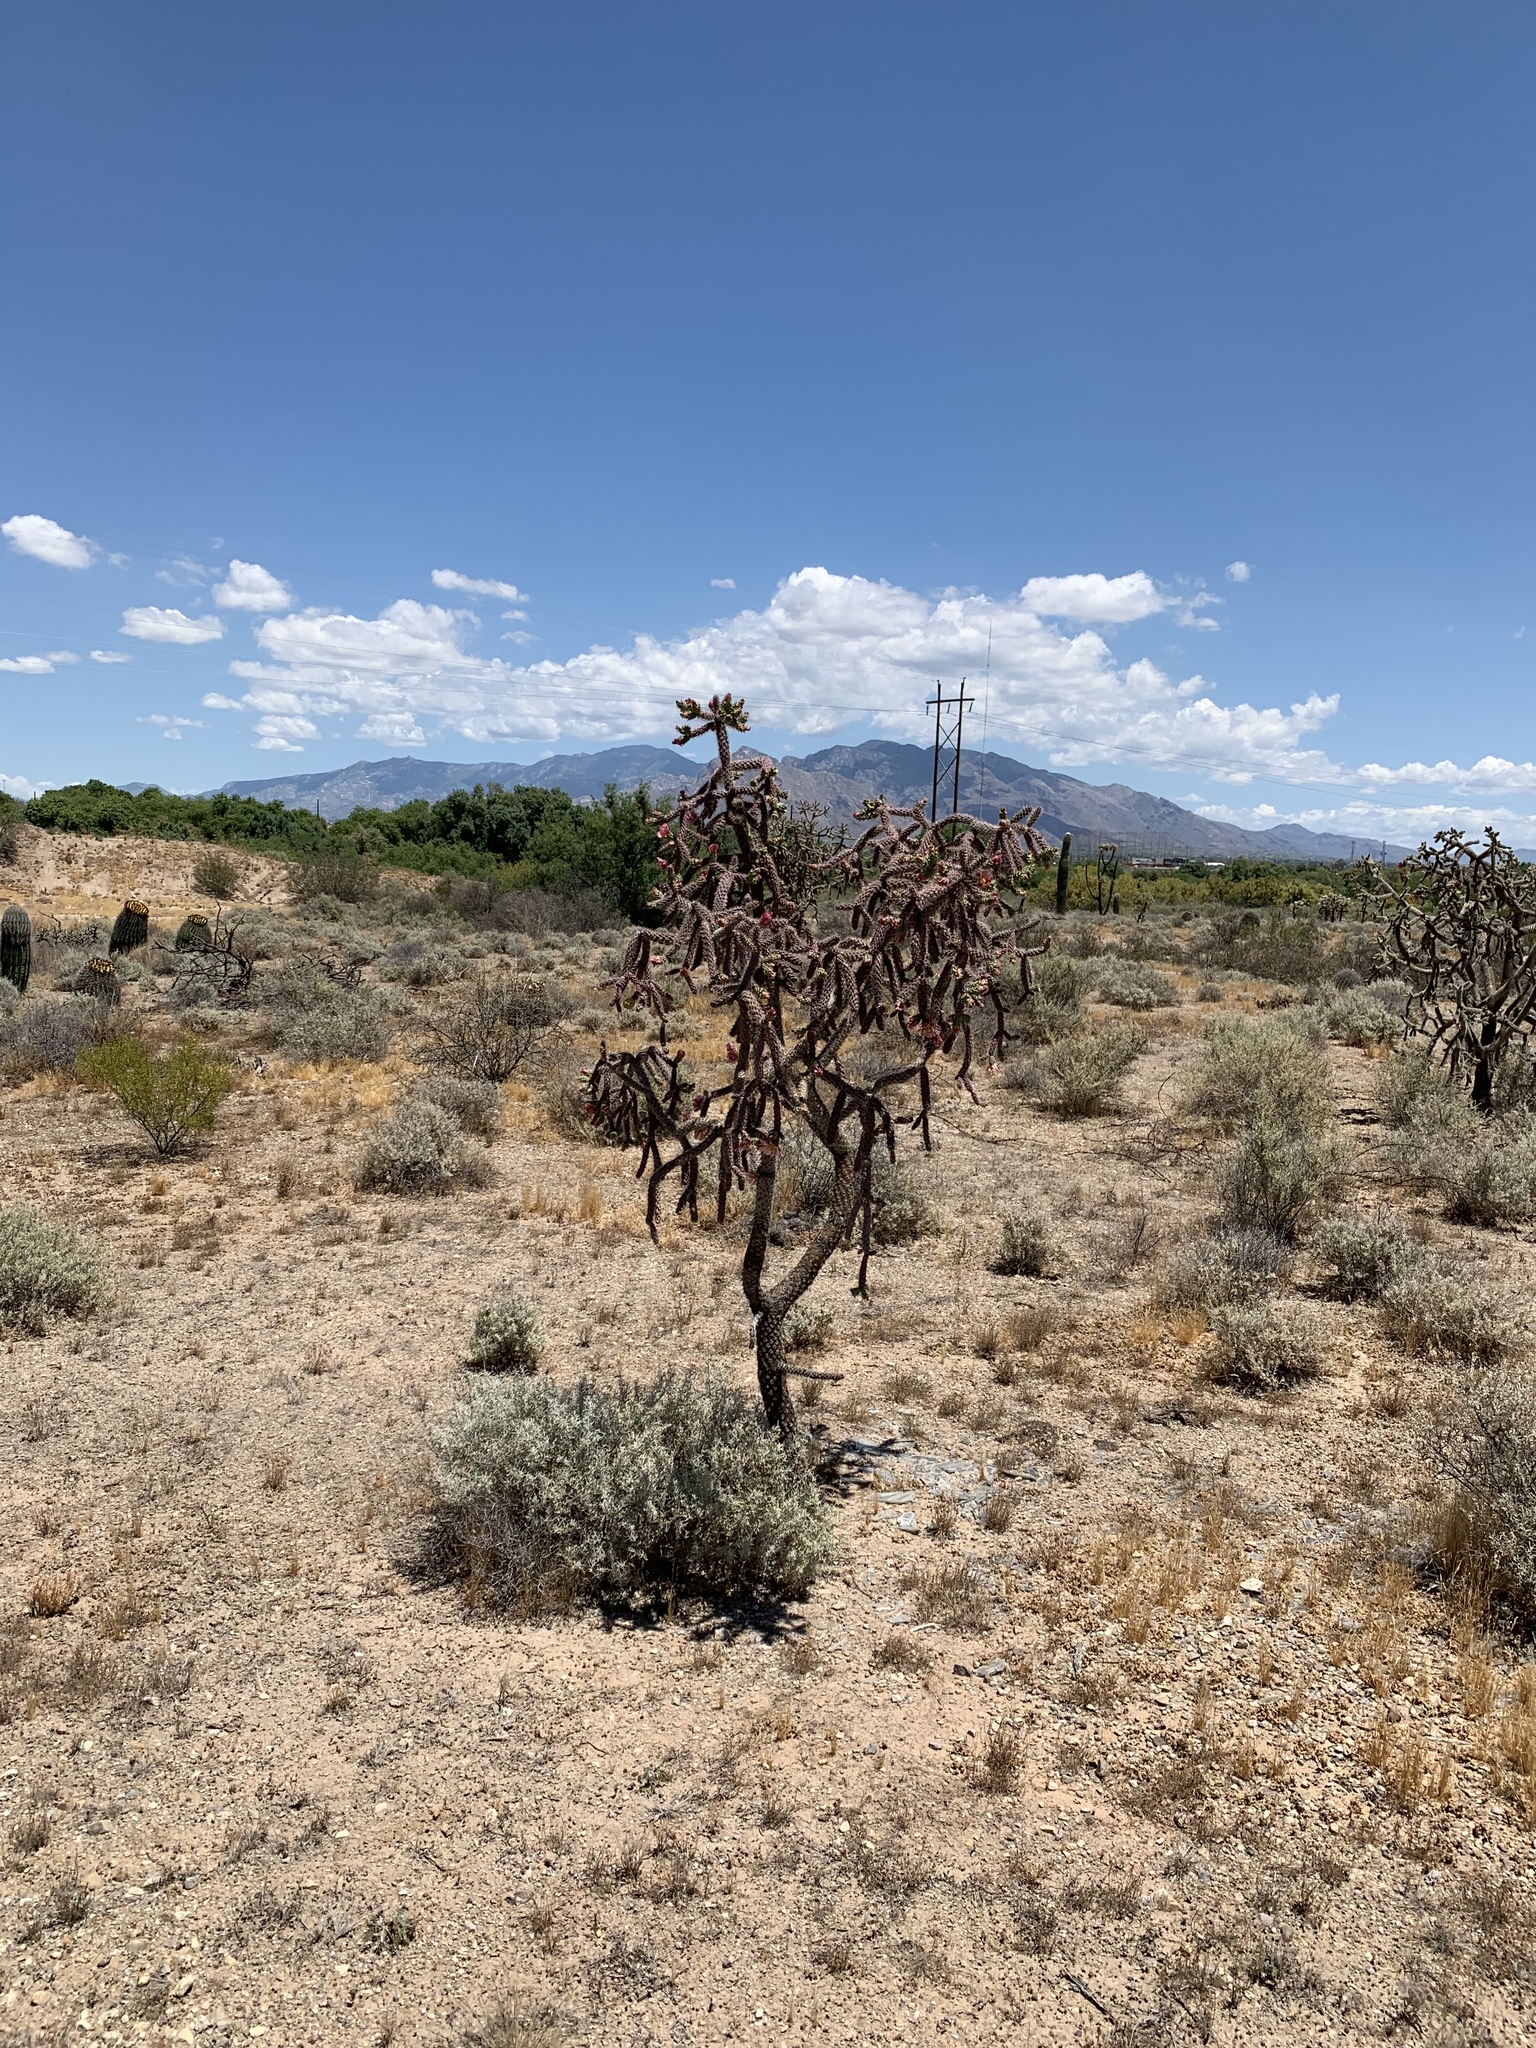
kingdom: Plantae
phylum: Tracheophyta
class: Magnoliopsida
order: Caryophyllales
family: Cactaceae
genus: Cylindropuntia
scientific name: Cylindropuntia imbricata
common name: Candelabrum cactus
